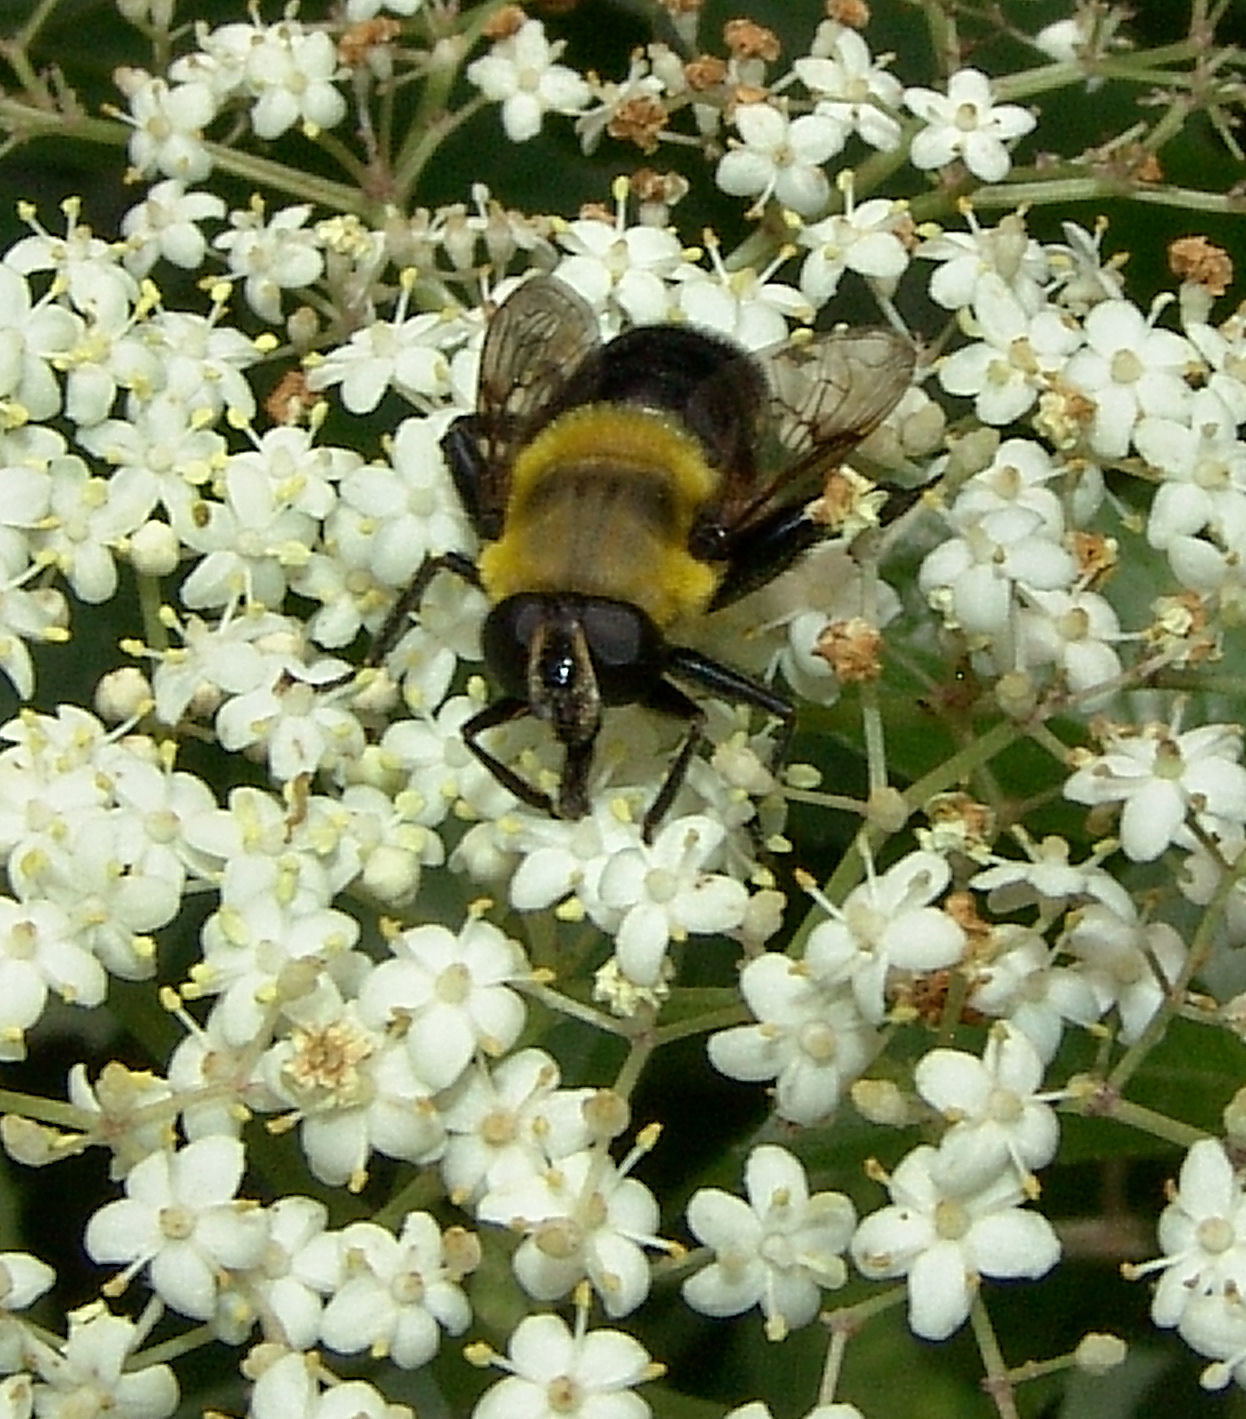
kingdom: Animalia
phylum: Arthropoda
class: Insecta
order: Diptera
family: Syrphidae
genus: Imatisma
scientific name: Imatisma bautias
